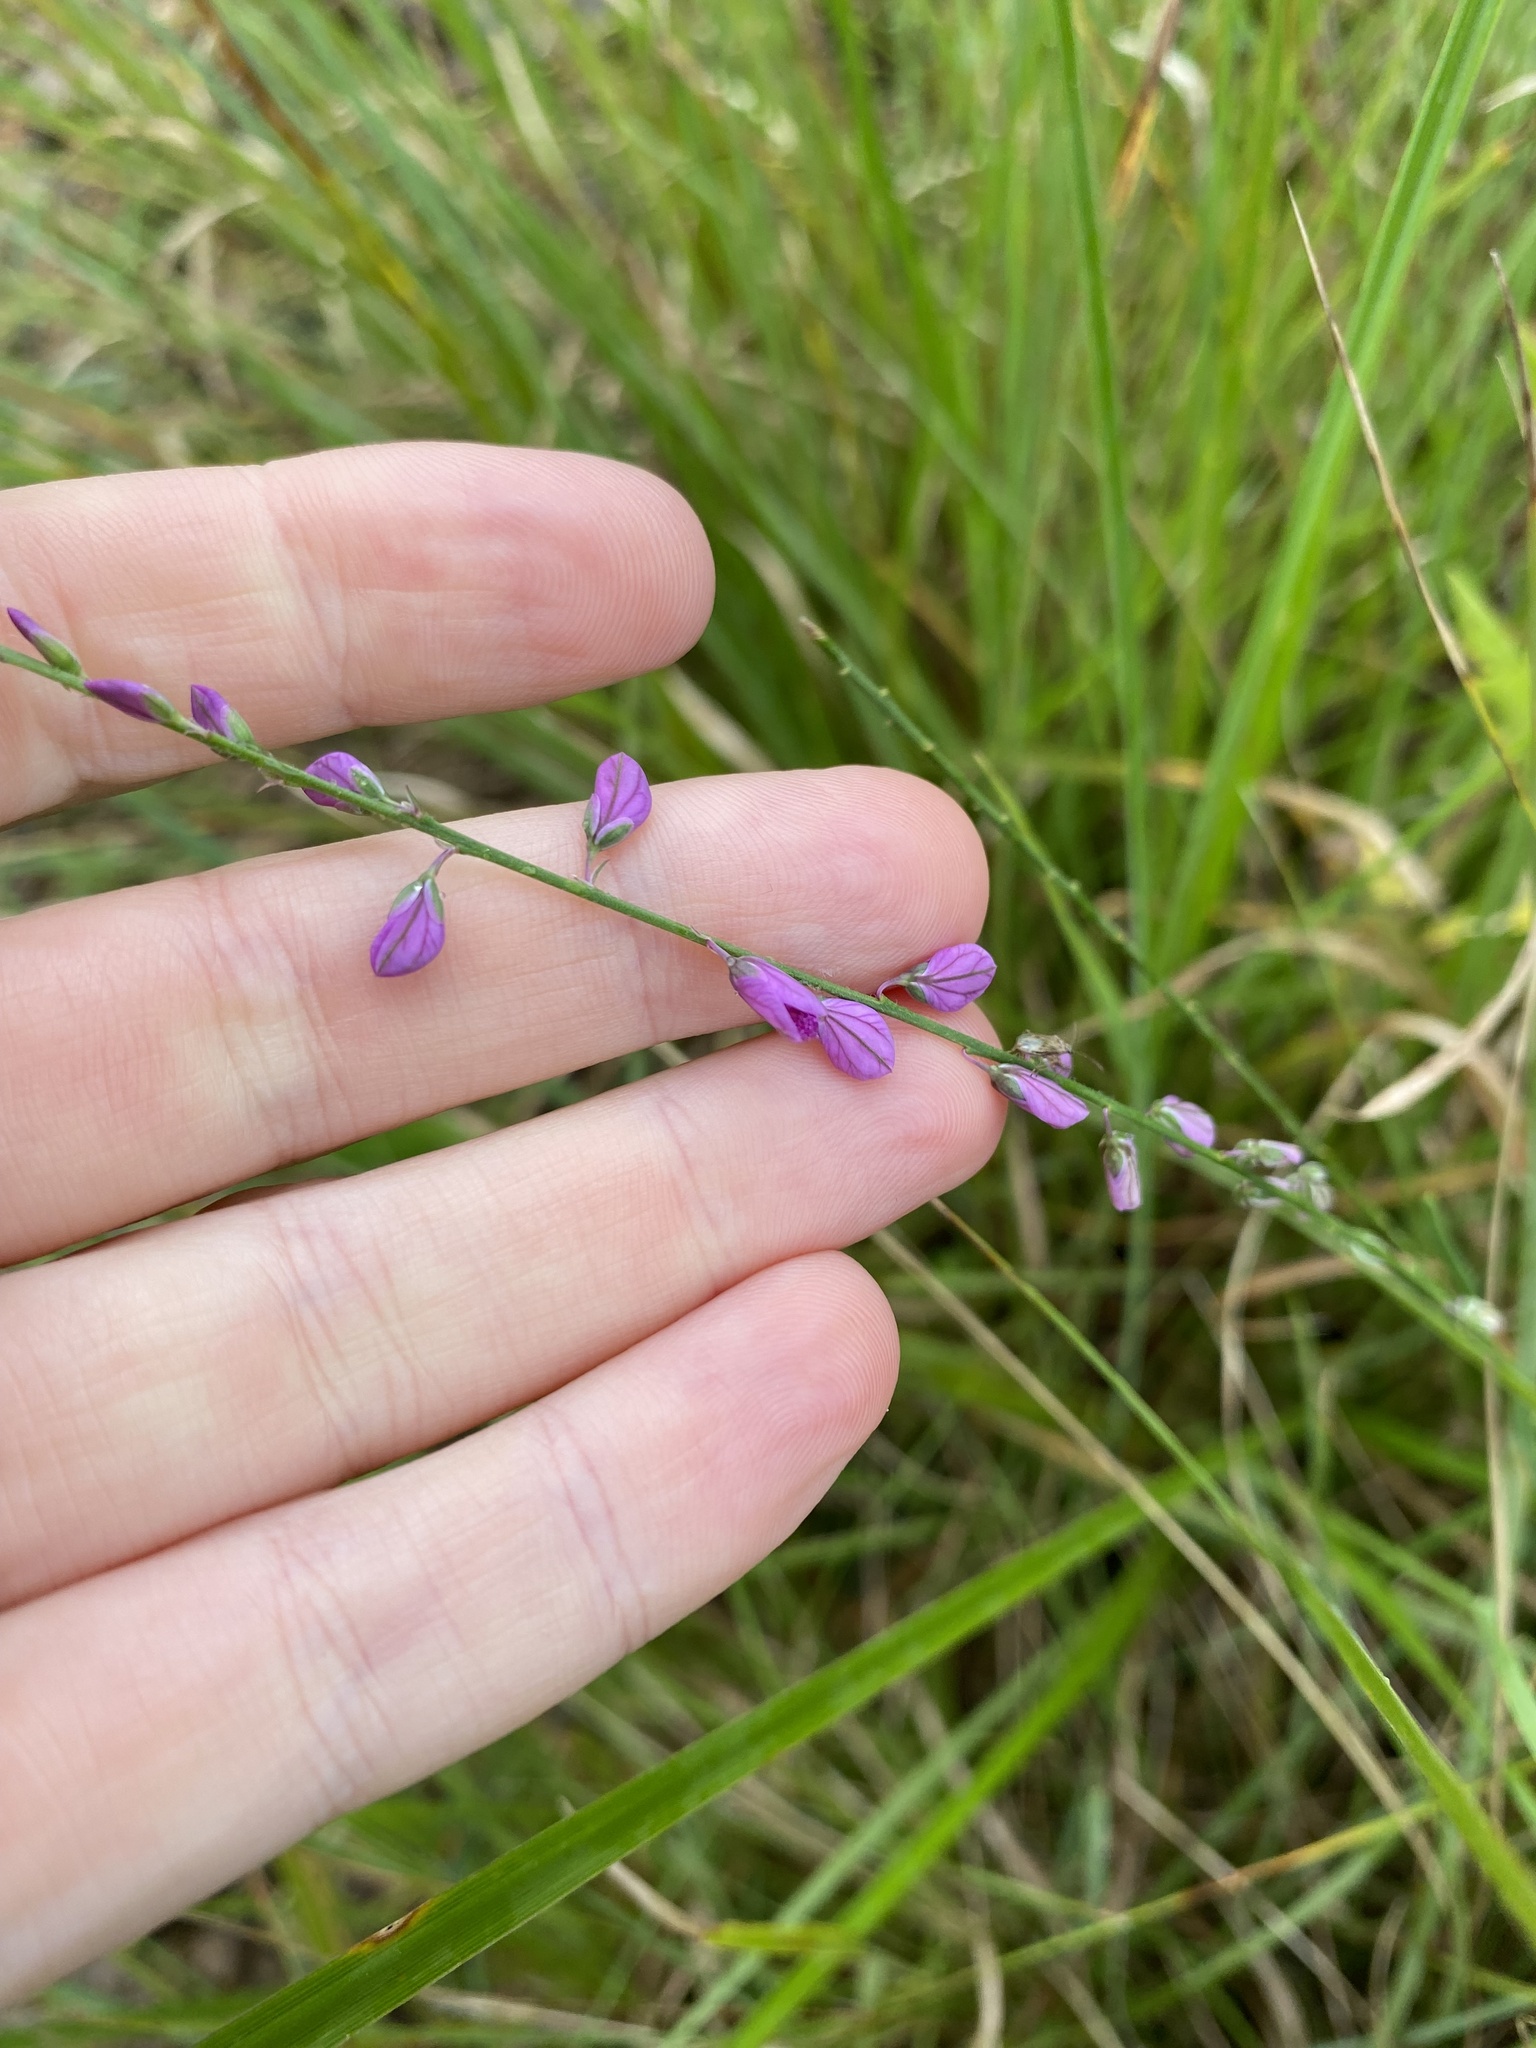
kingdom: Plantae
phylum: Tracheophyta
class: Magnoliopsida
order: Fabales
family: Polygalaceae
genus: Polygala
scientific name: Polygala hottentotta
